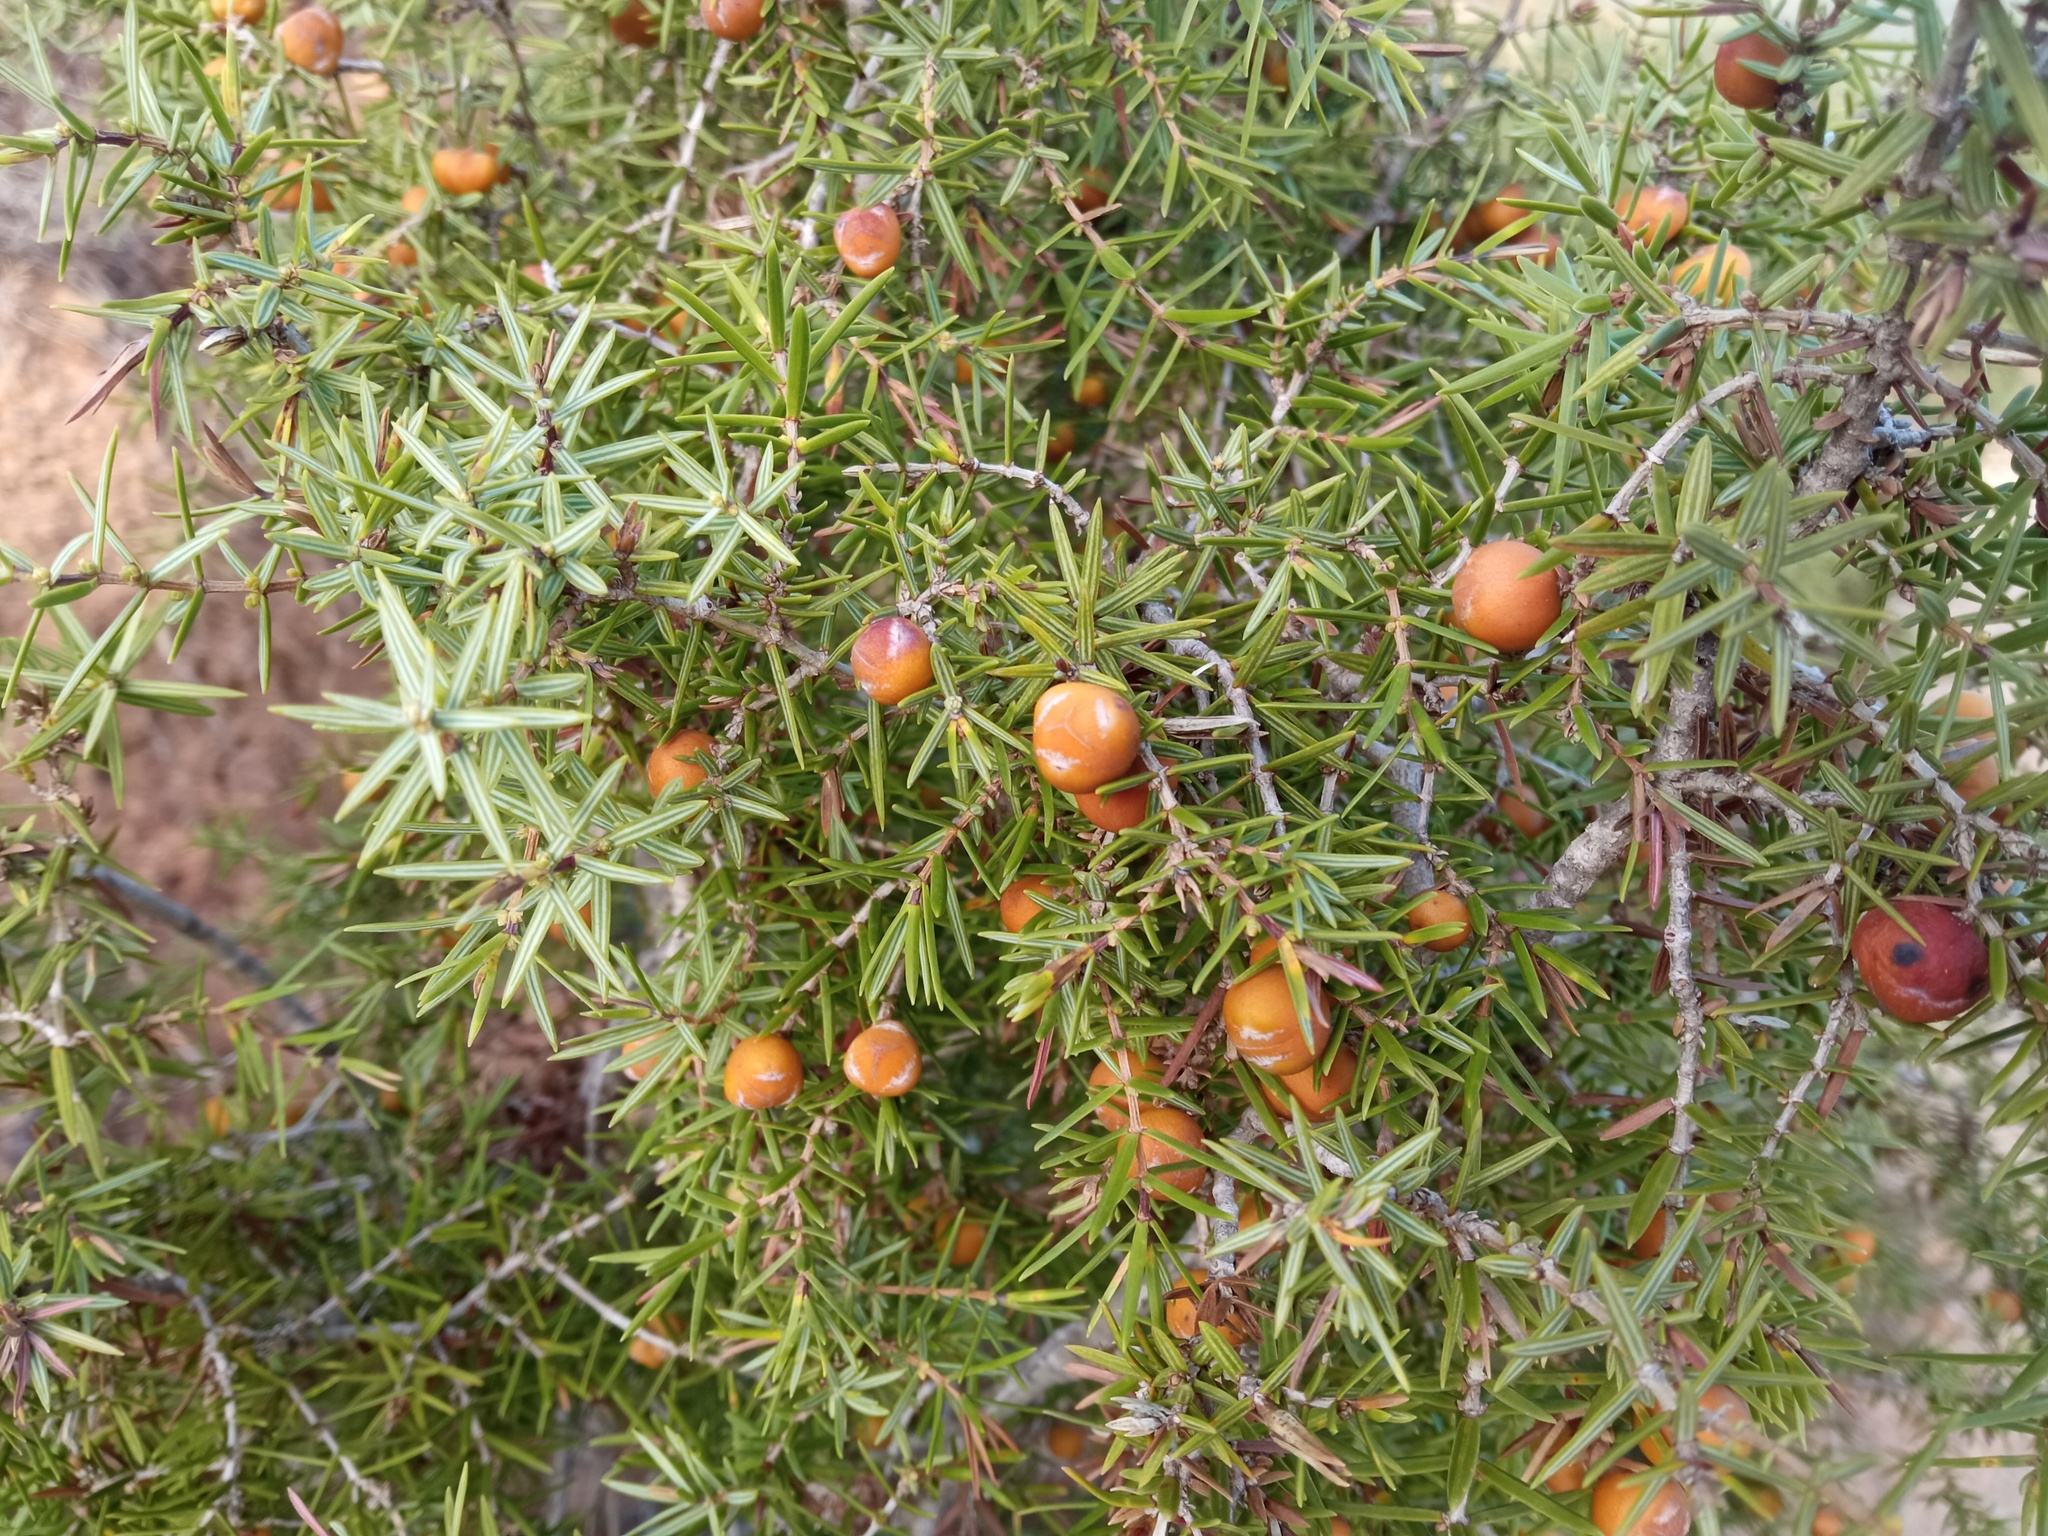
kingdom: Plantae
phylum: Tracheophyta
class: Pinopsida
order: Pinales
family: Cupressaceae
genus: Juniperus
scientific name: Juniperus oxycedrus
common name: Prickly juniper
